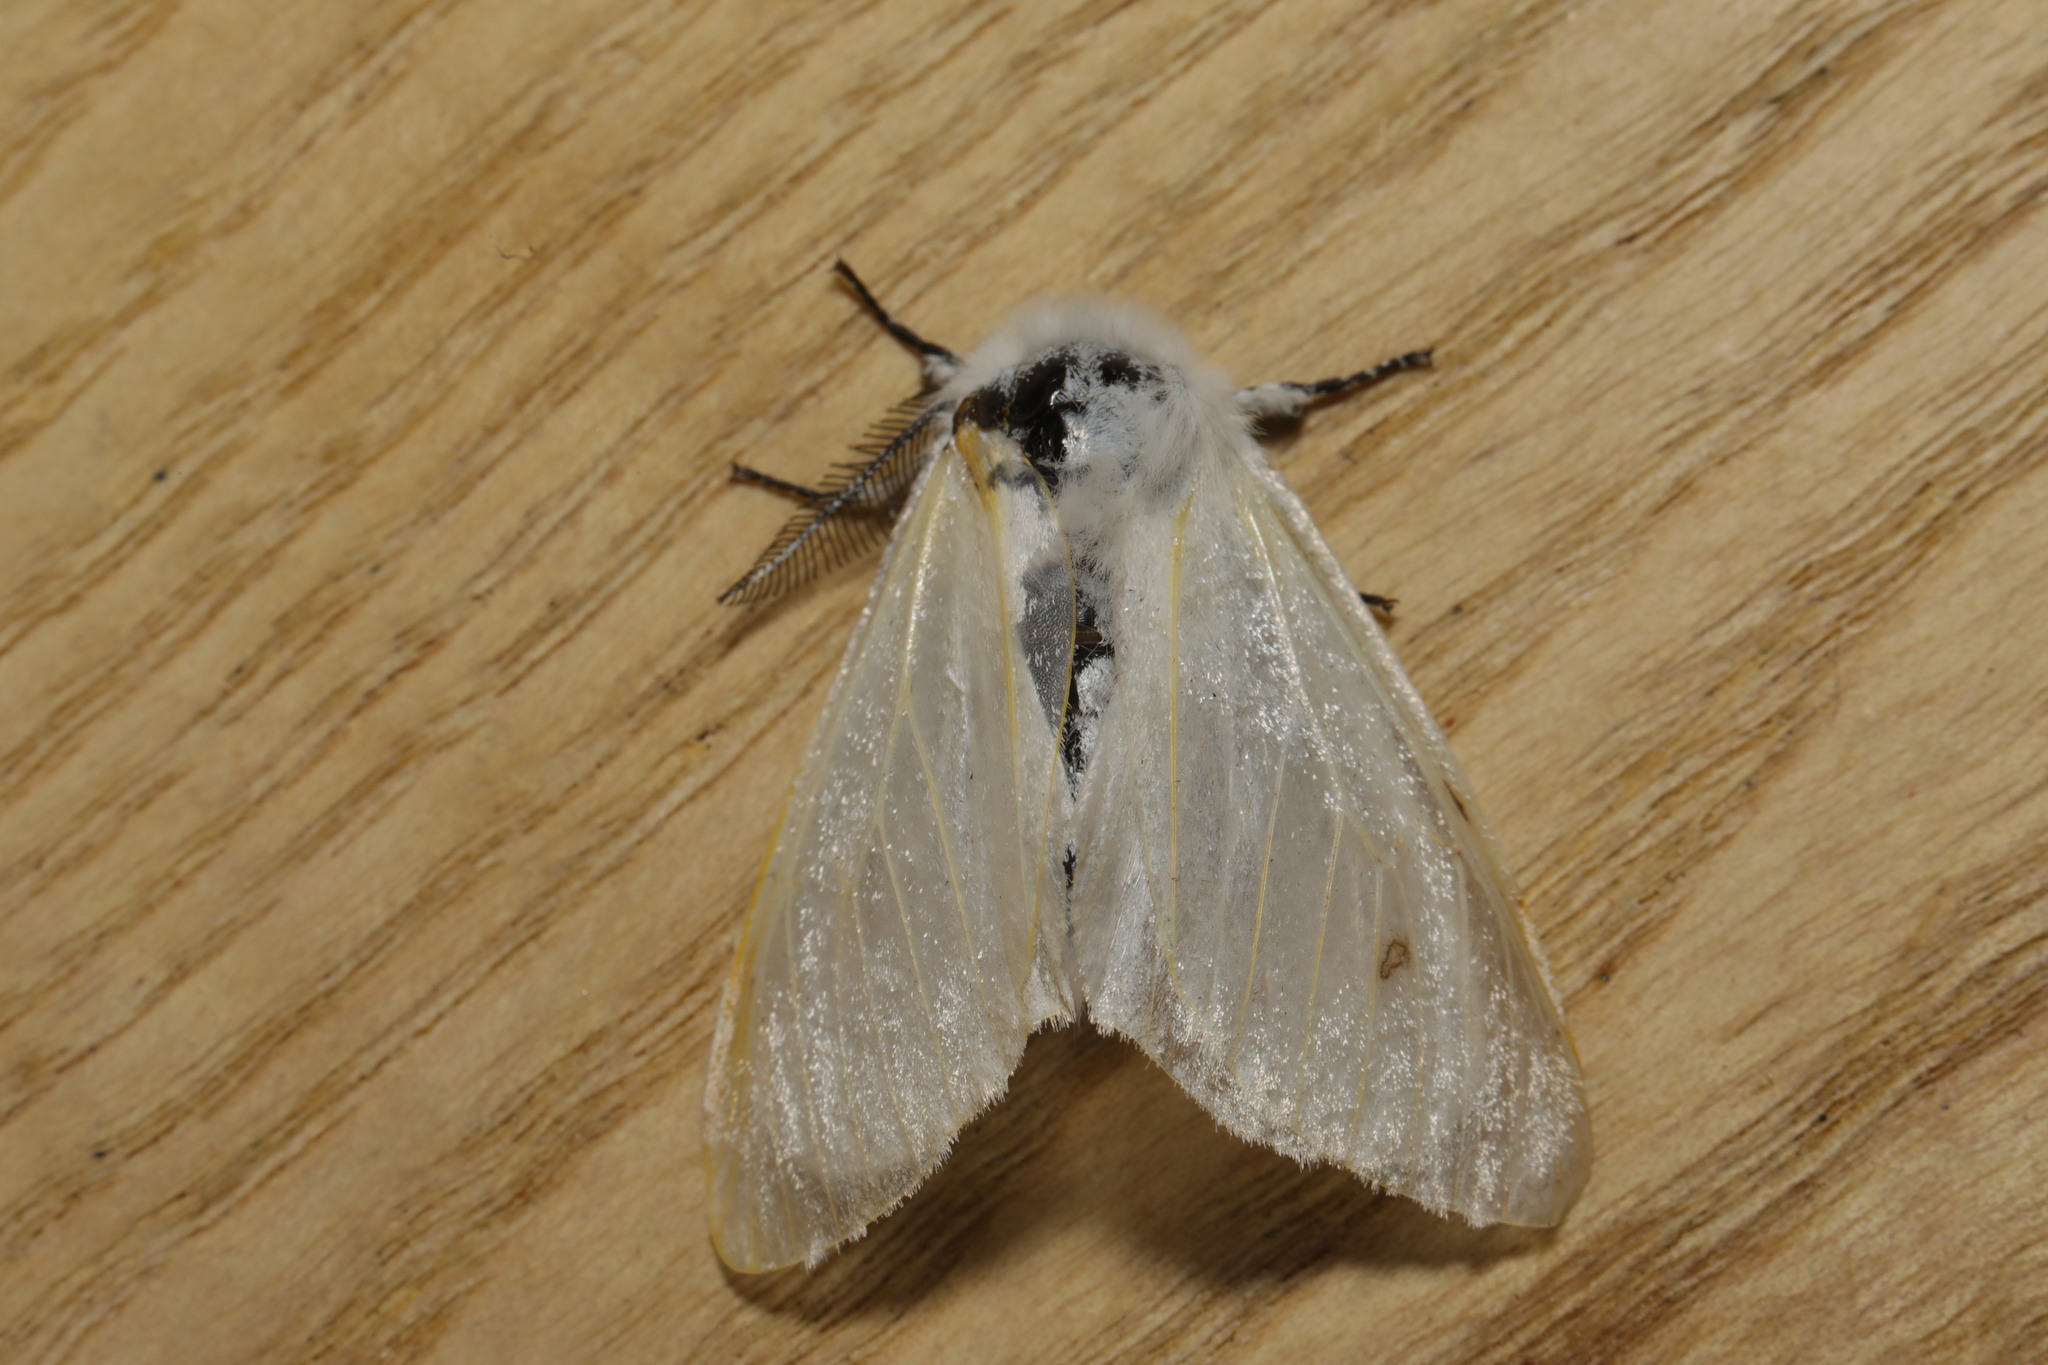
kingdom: Animalia
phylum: Arthropoda
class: Insecta
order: Lepidoptera
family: Erebidae
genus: Leucoma
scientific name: Leucoma salicis
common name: White satin moth
